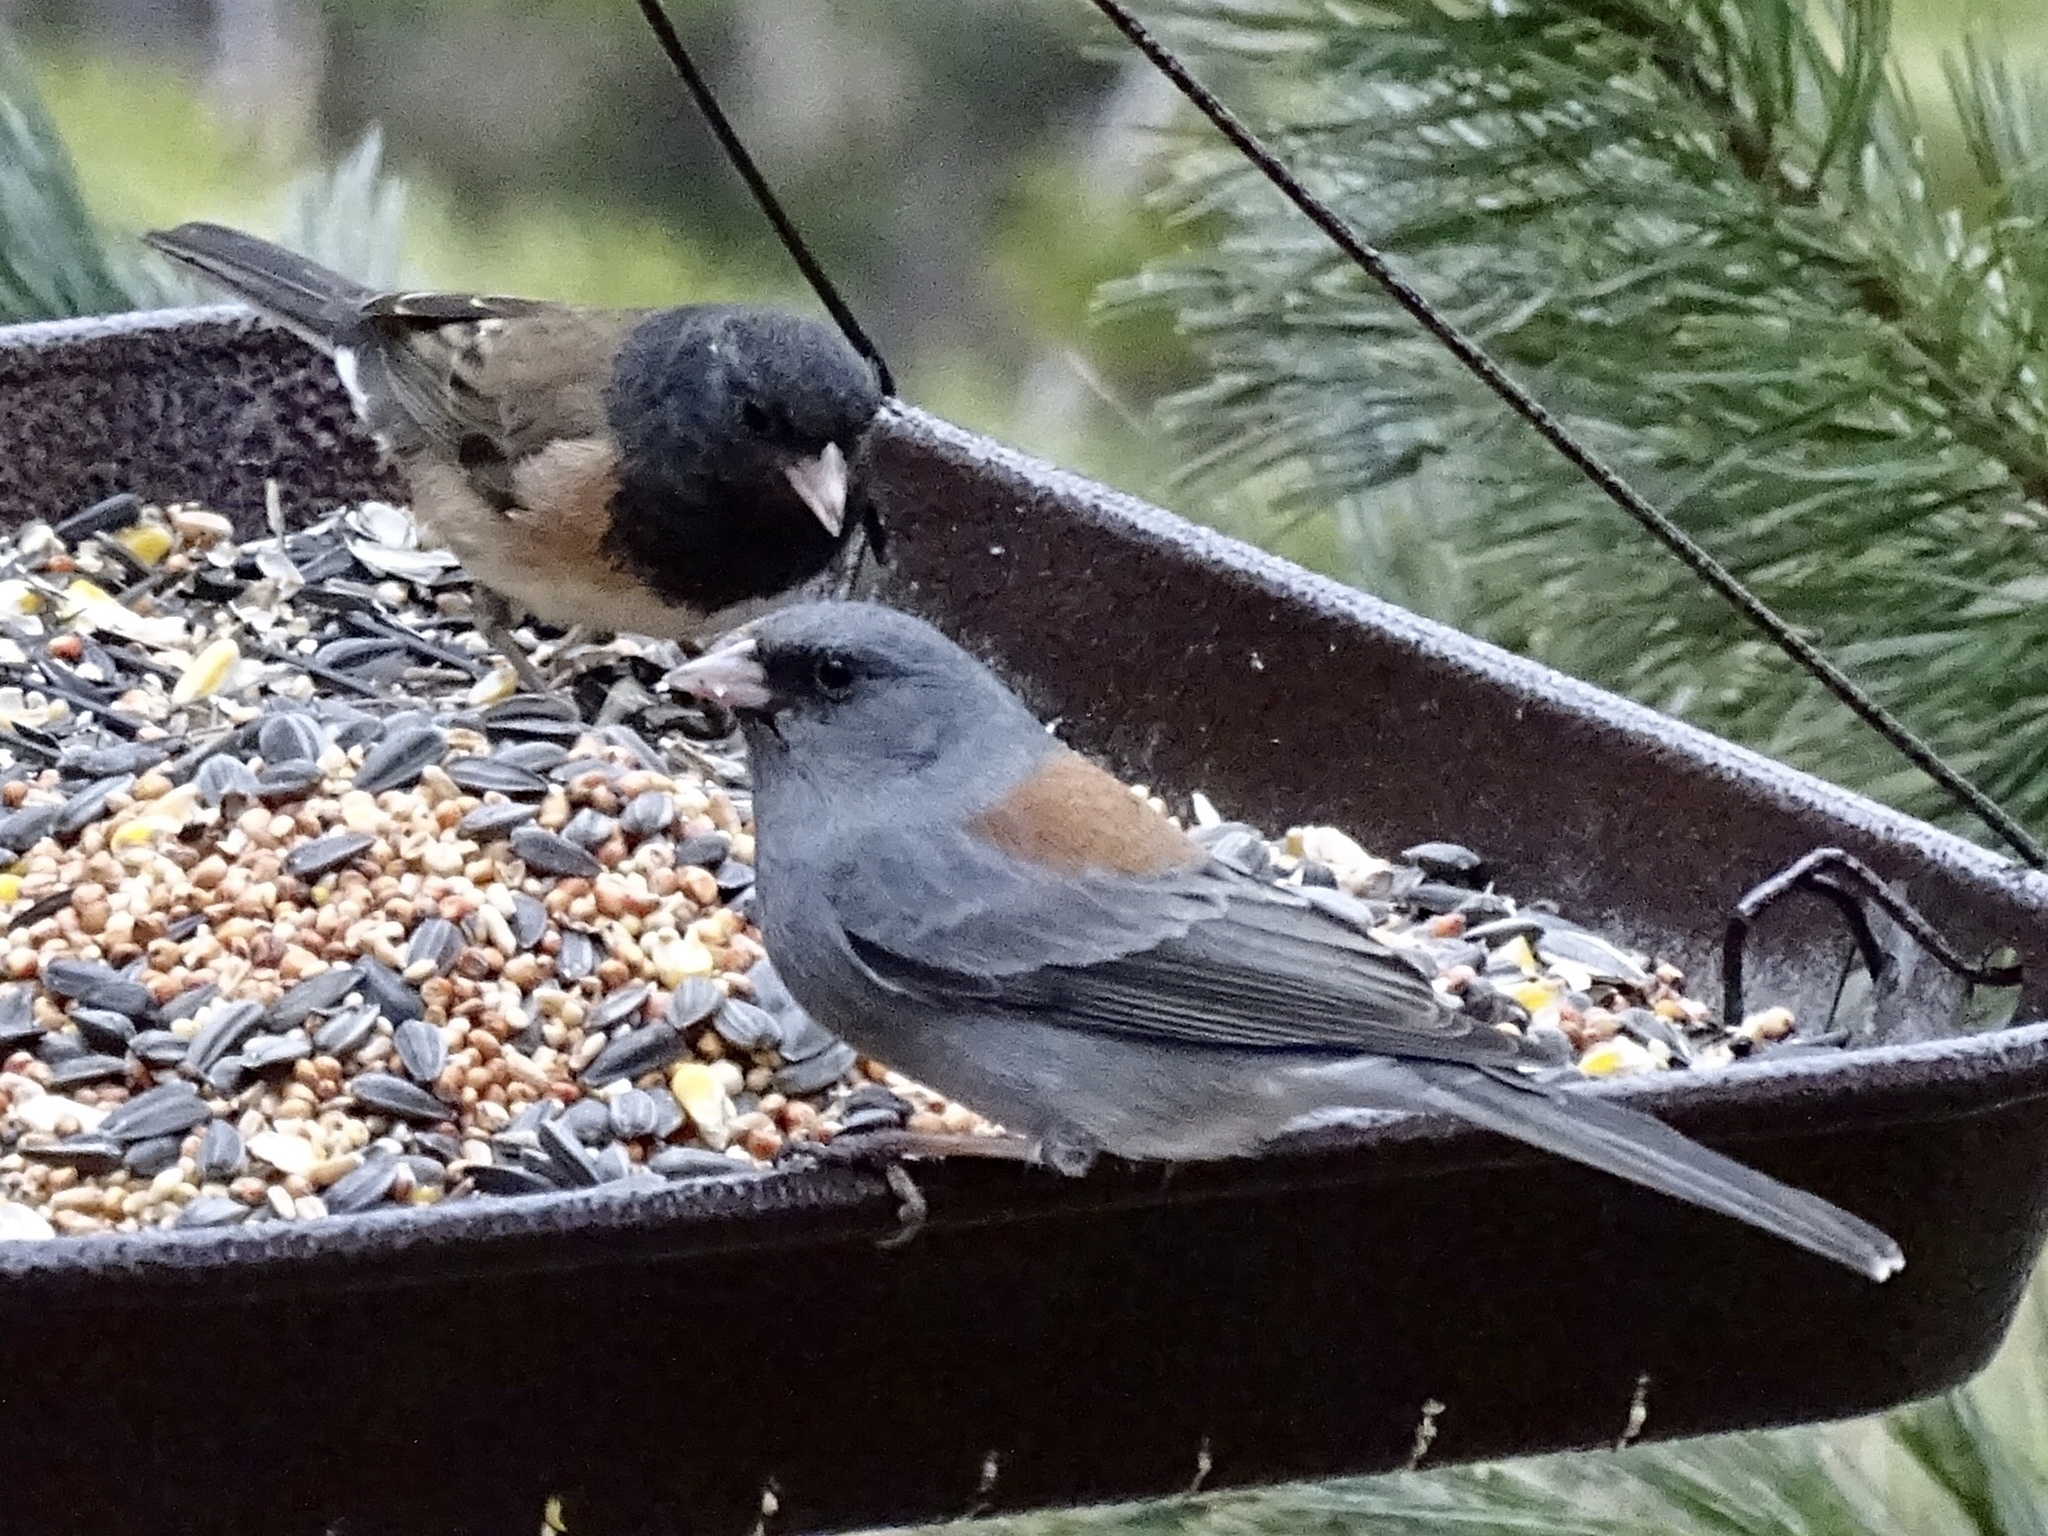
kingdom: Animalia
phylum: Chordata
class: Aves
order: Passeriformes
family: Passerellidae
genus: Junco
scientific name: Junco hyemalis
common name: Dark-eyed junco
